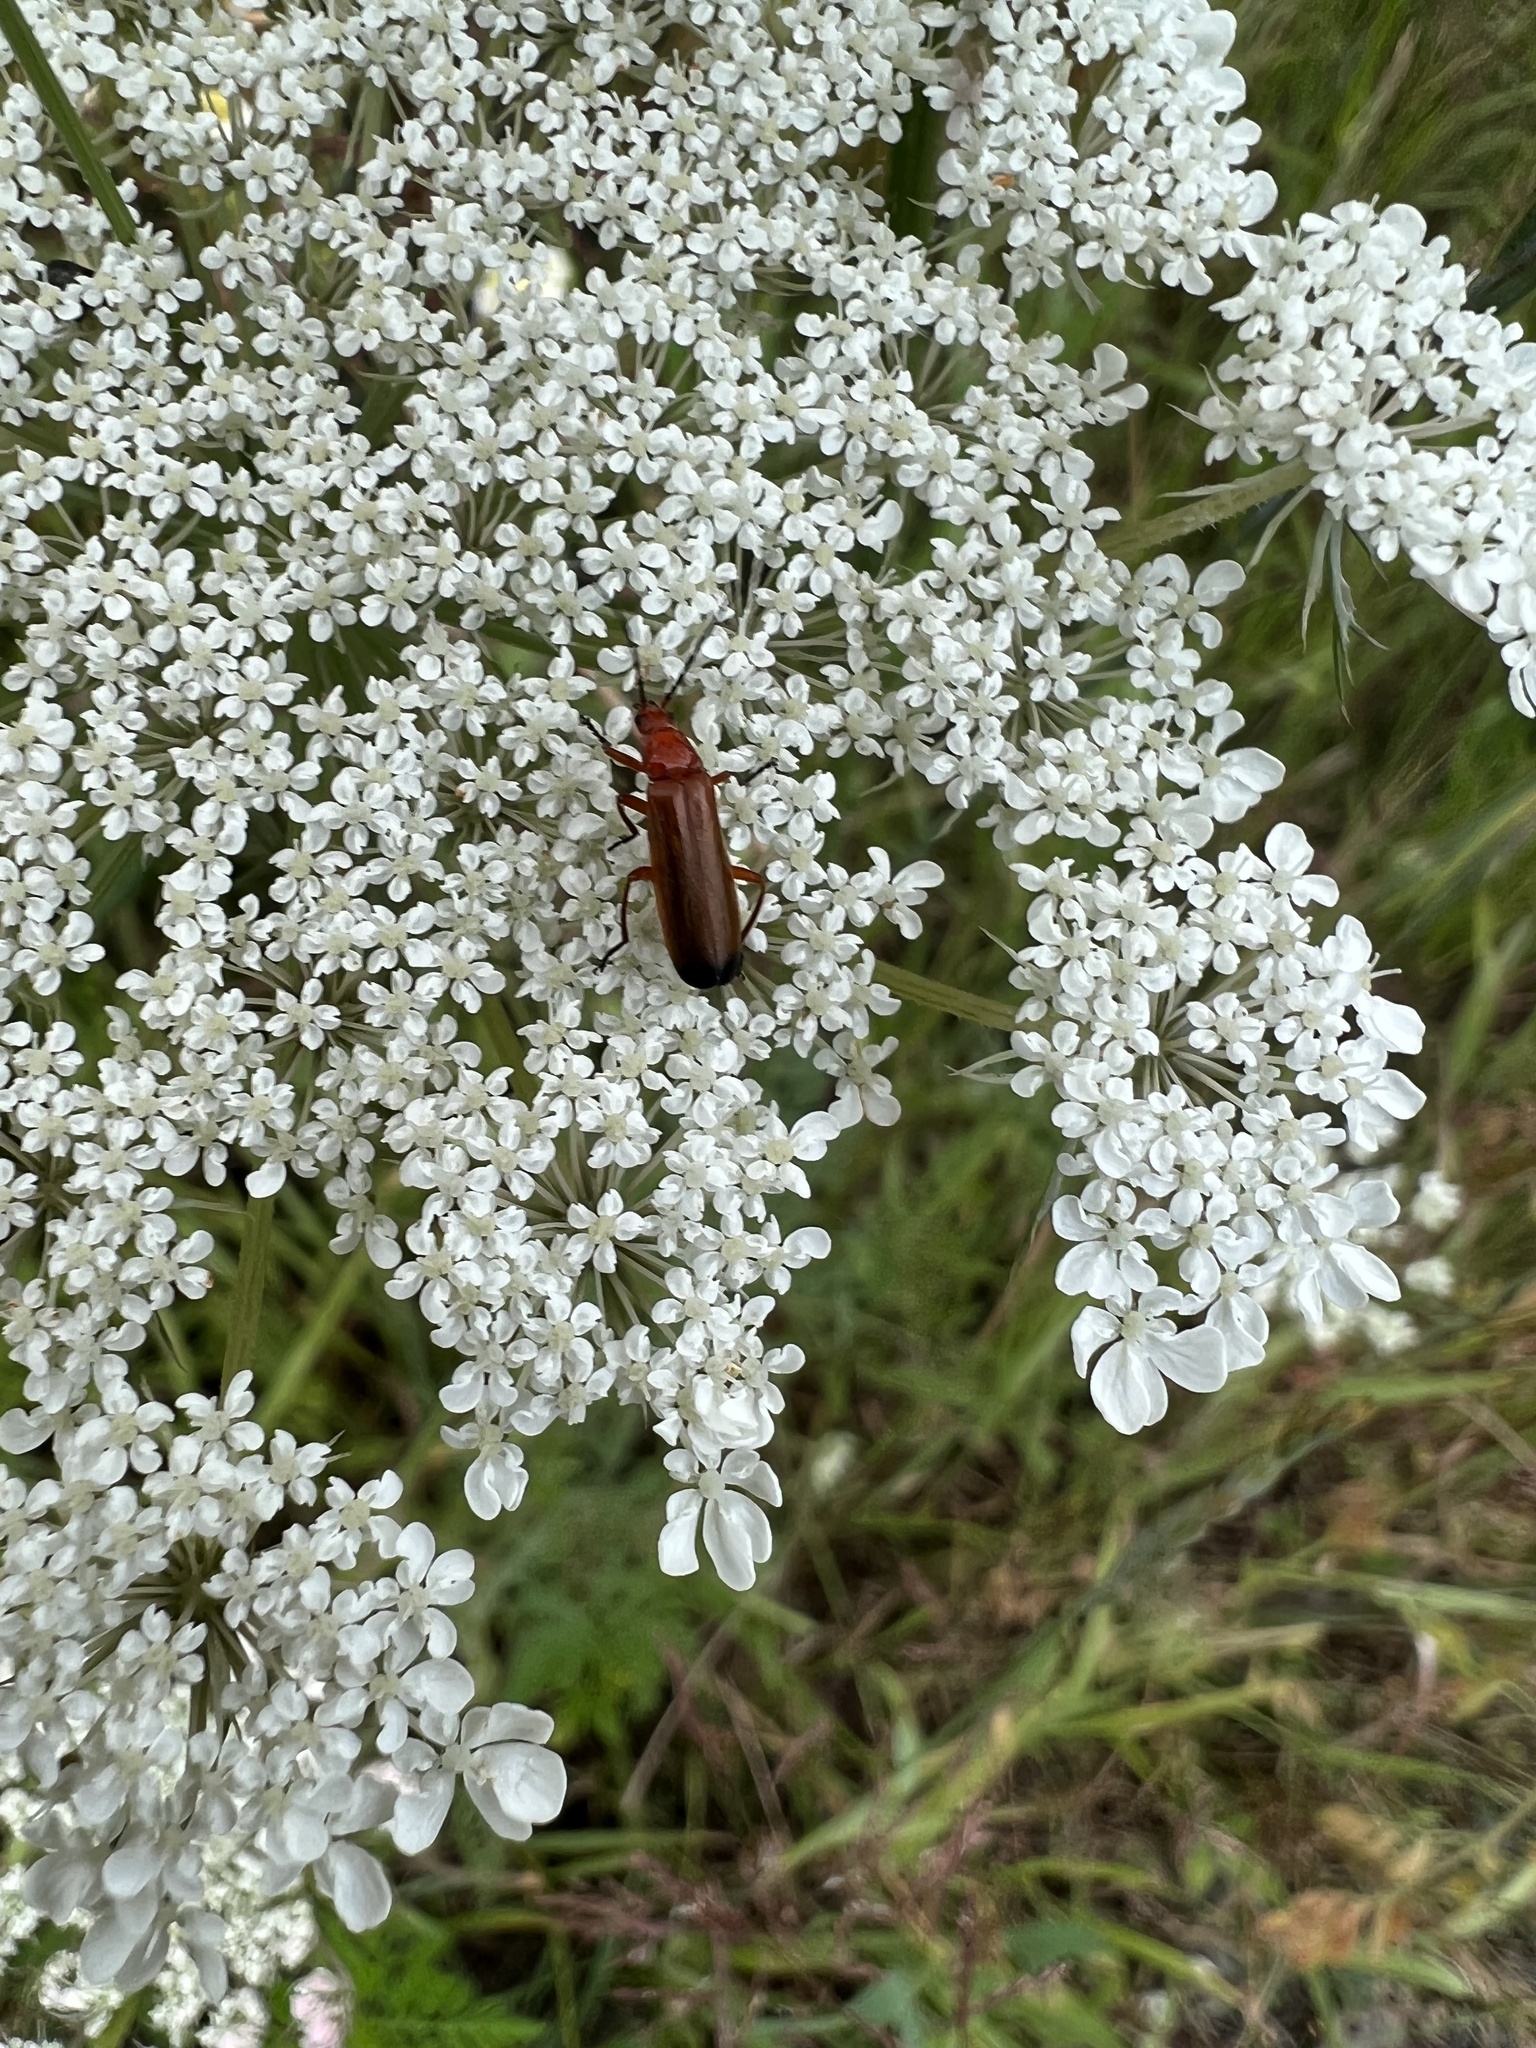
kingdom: Animalia
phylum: Arthropoda
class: Insecta
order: Coleoptera
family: Cantharidae
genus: Rhagonycha
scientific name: Rhagonycha fulva
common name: Common red soldier beetle
